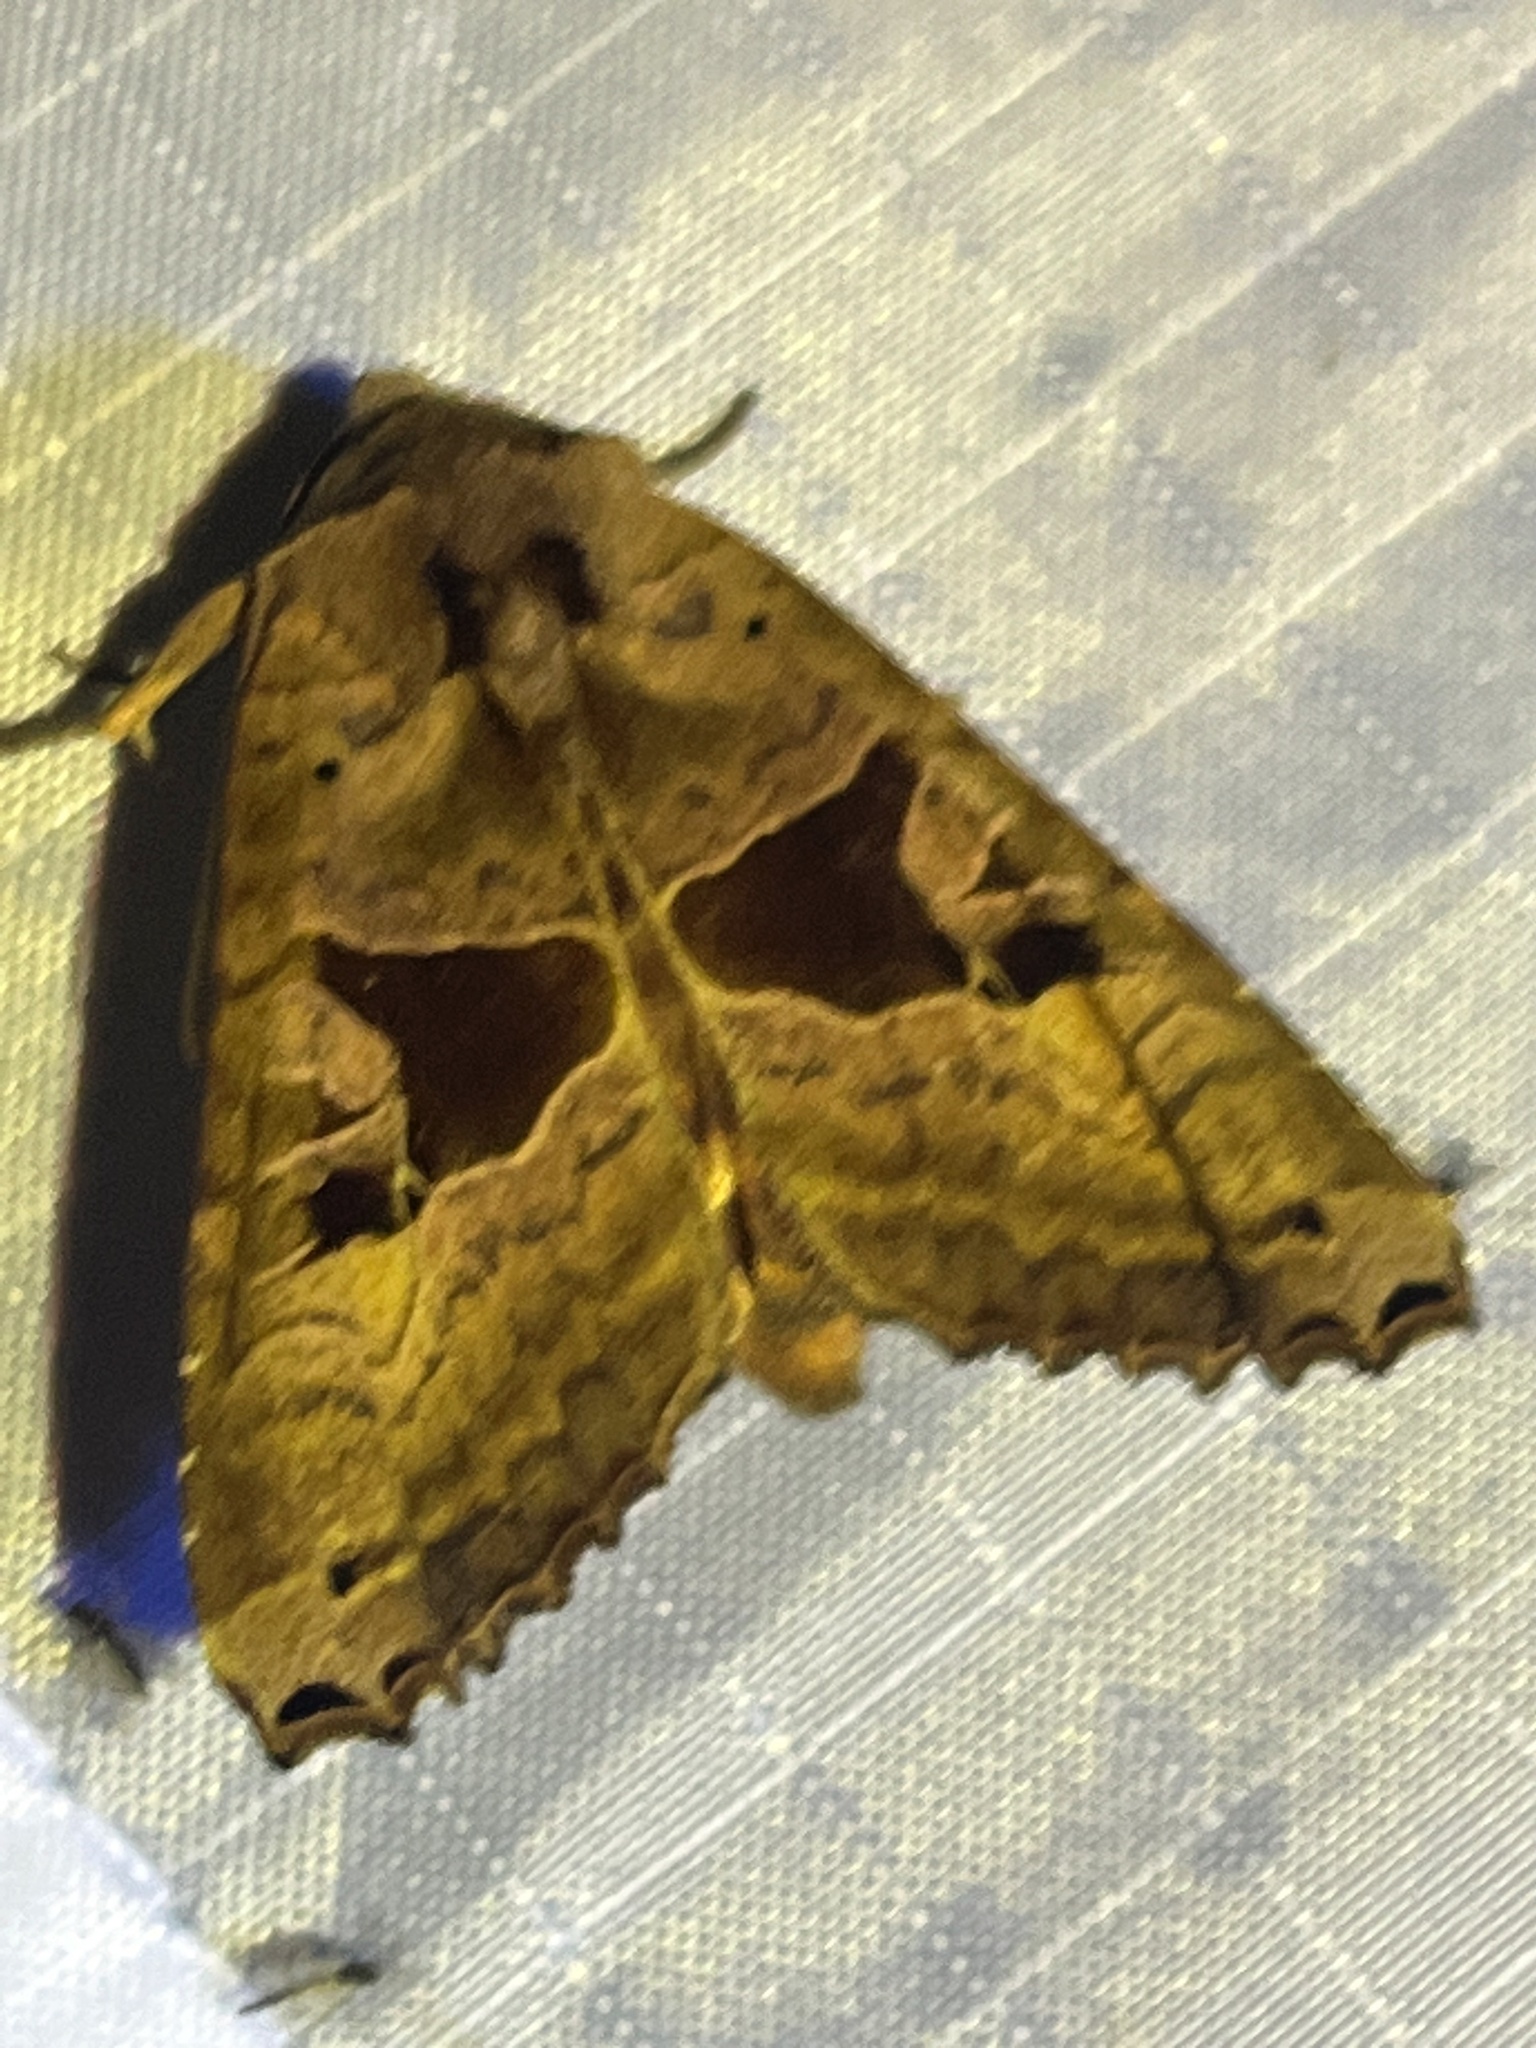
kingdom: Animalia
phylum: Arthropoda
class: Insecta
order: Lepidoptera
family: Noctuidae
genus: Phlogophora
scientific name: Phlogophora periculosa
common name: Brown angle shades
